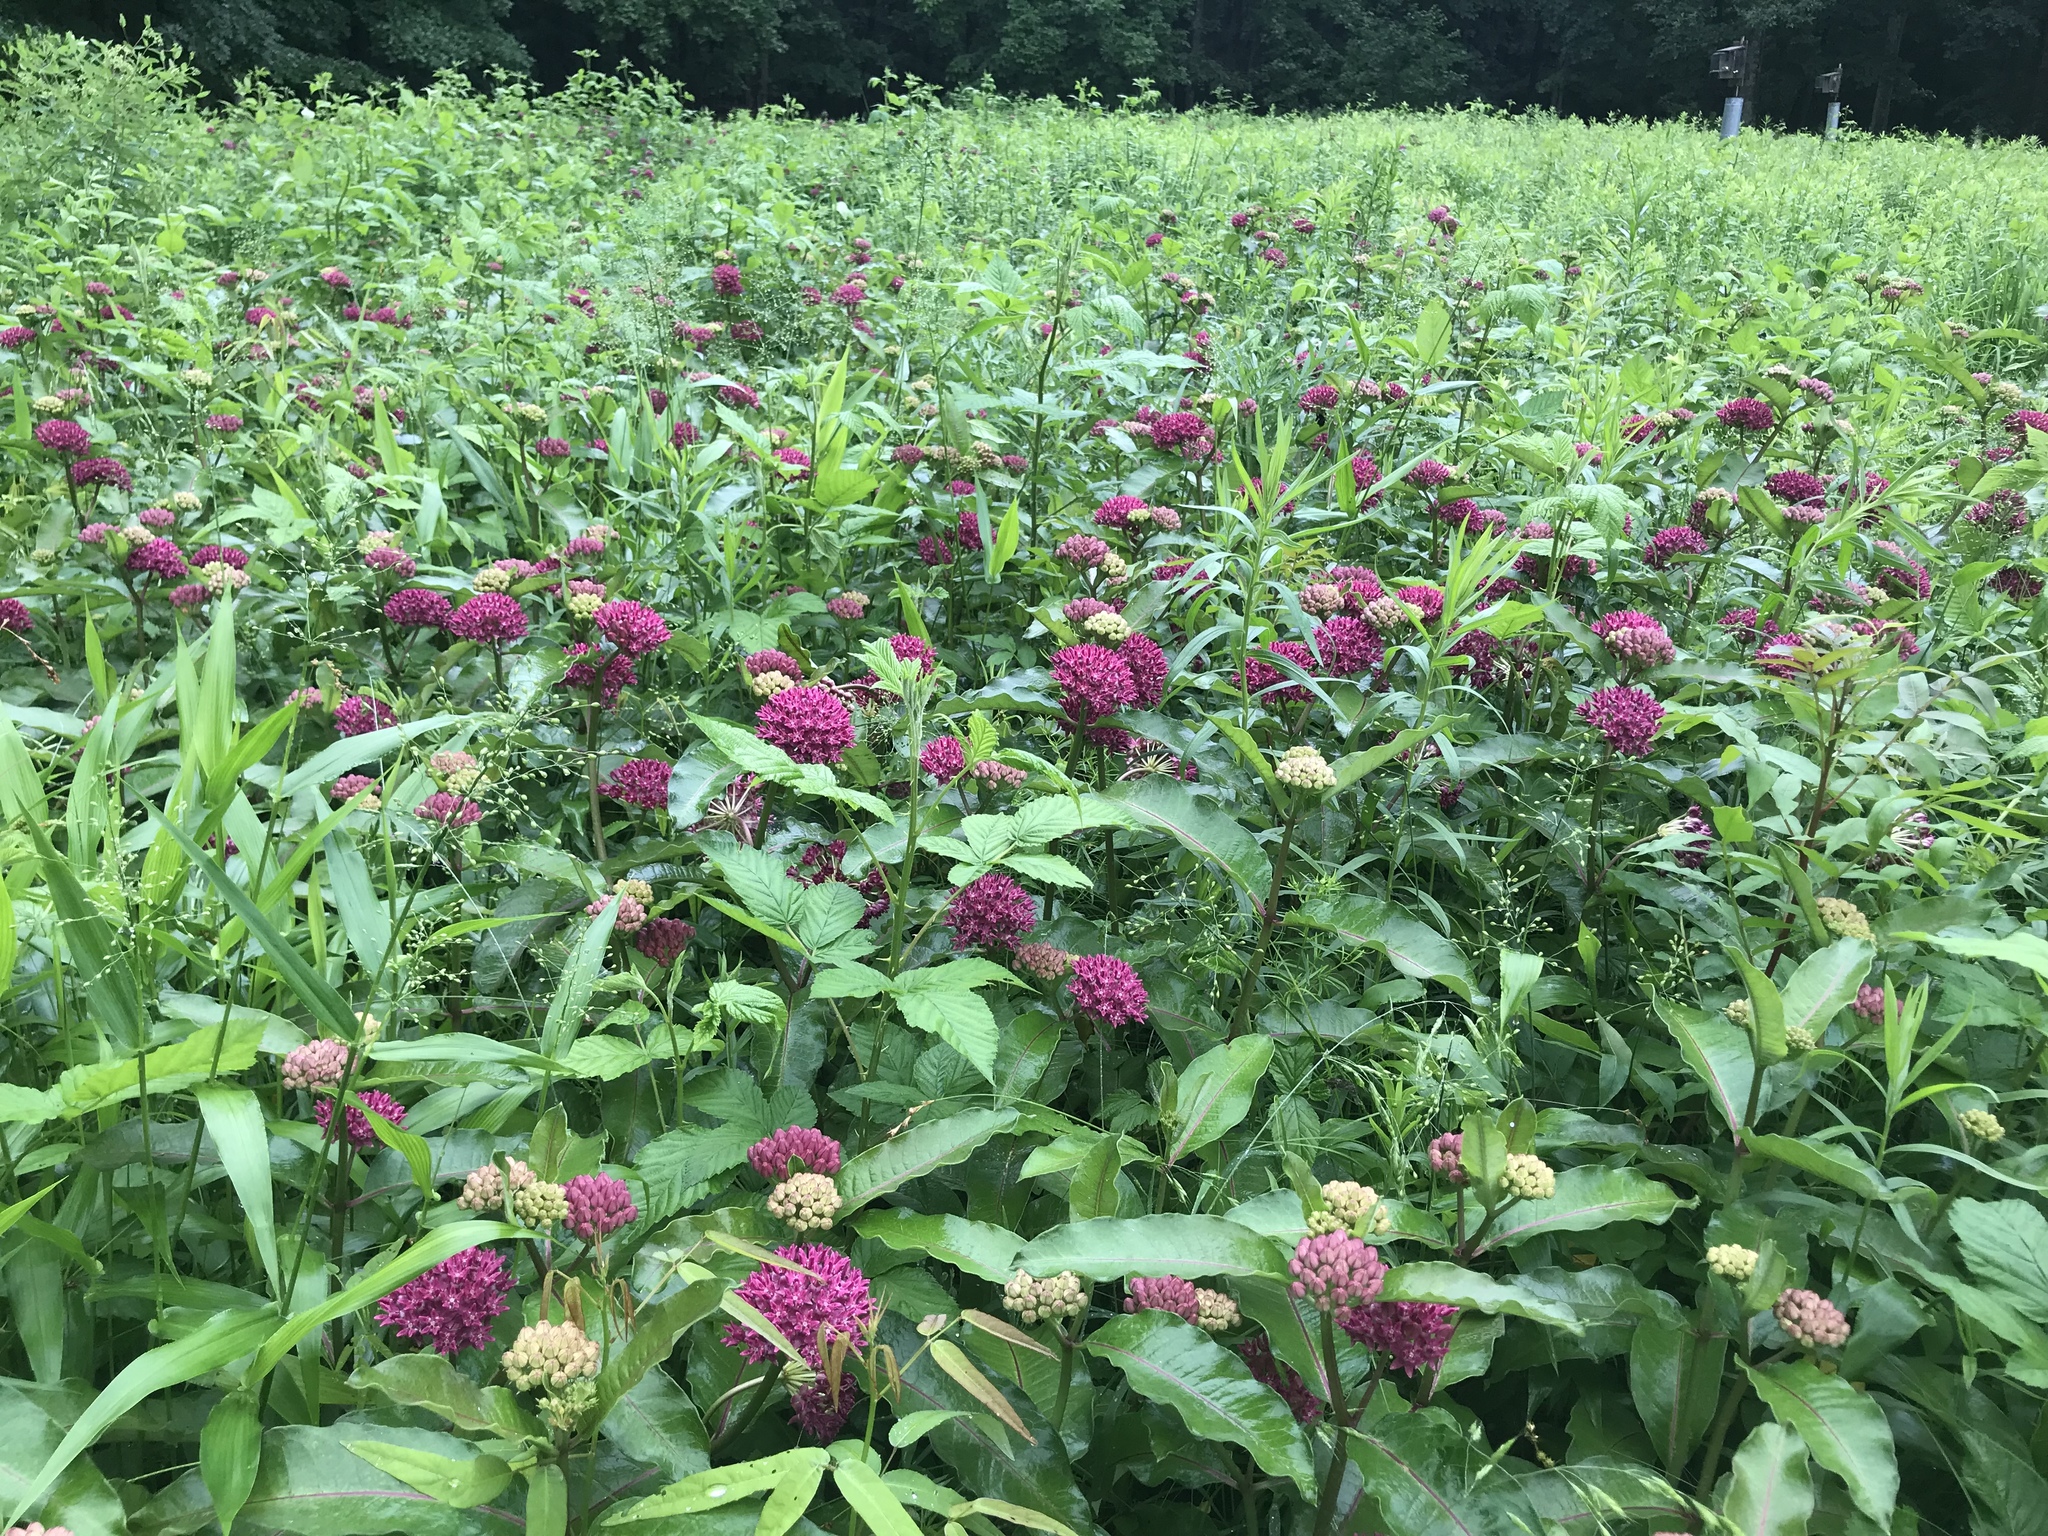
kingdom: Plantae
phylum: Tracheophyta
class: Magnoliopsida
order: Gentianales
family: Apocynaceae
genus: Asclepias
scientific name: Asclepias purpurascens
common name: Purple milkweed
